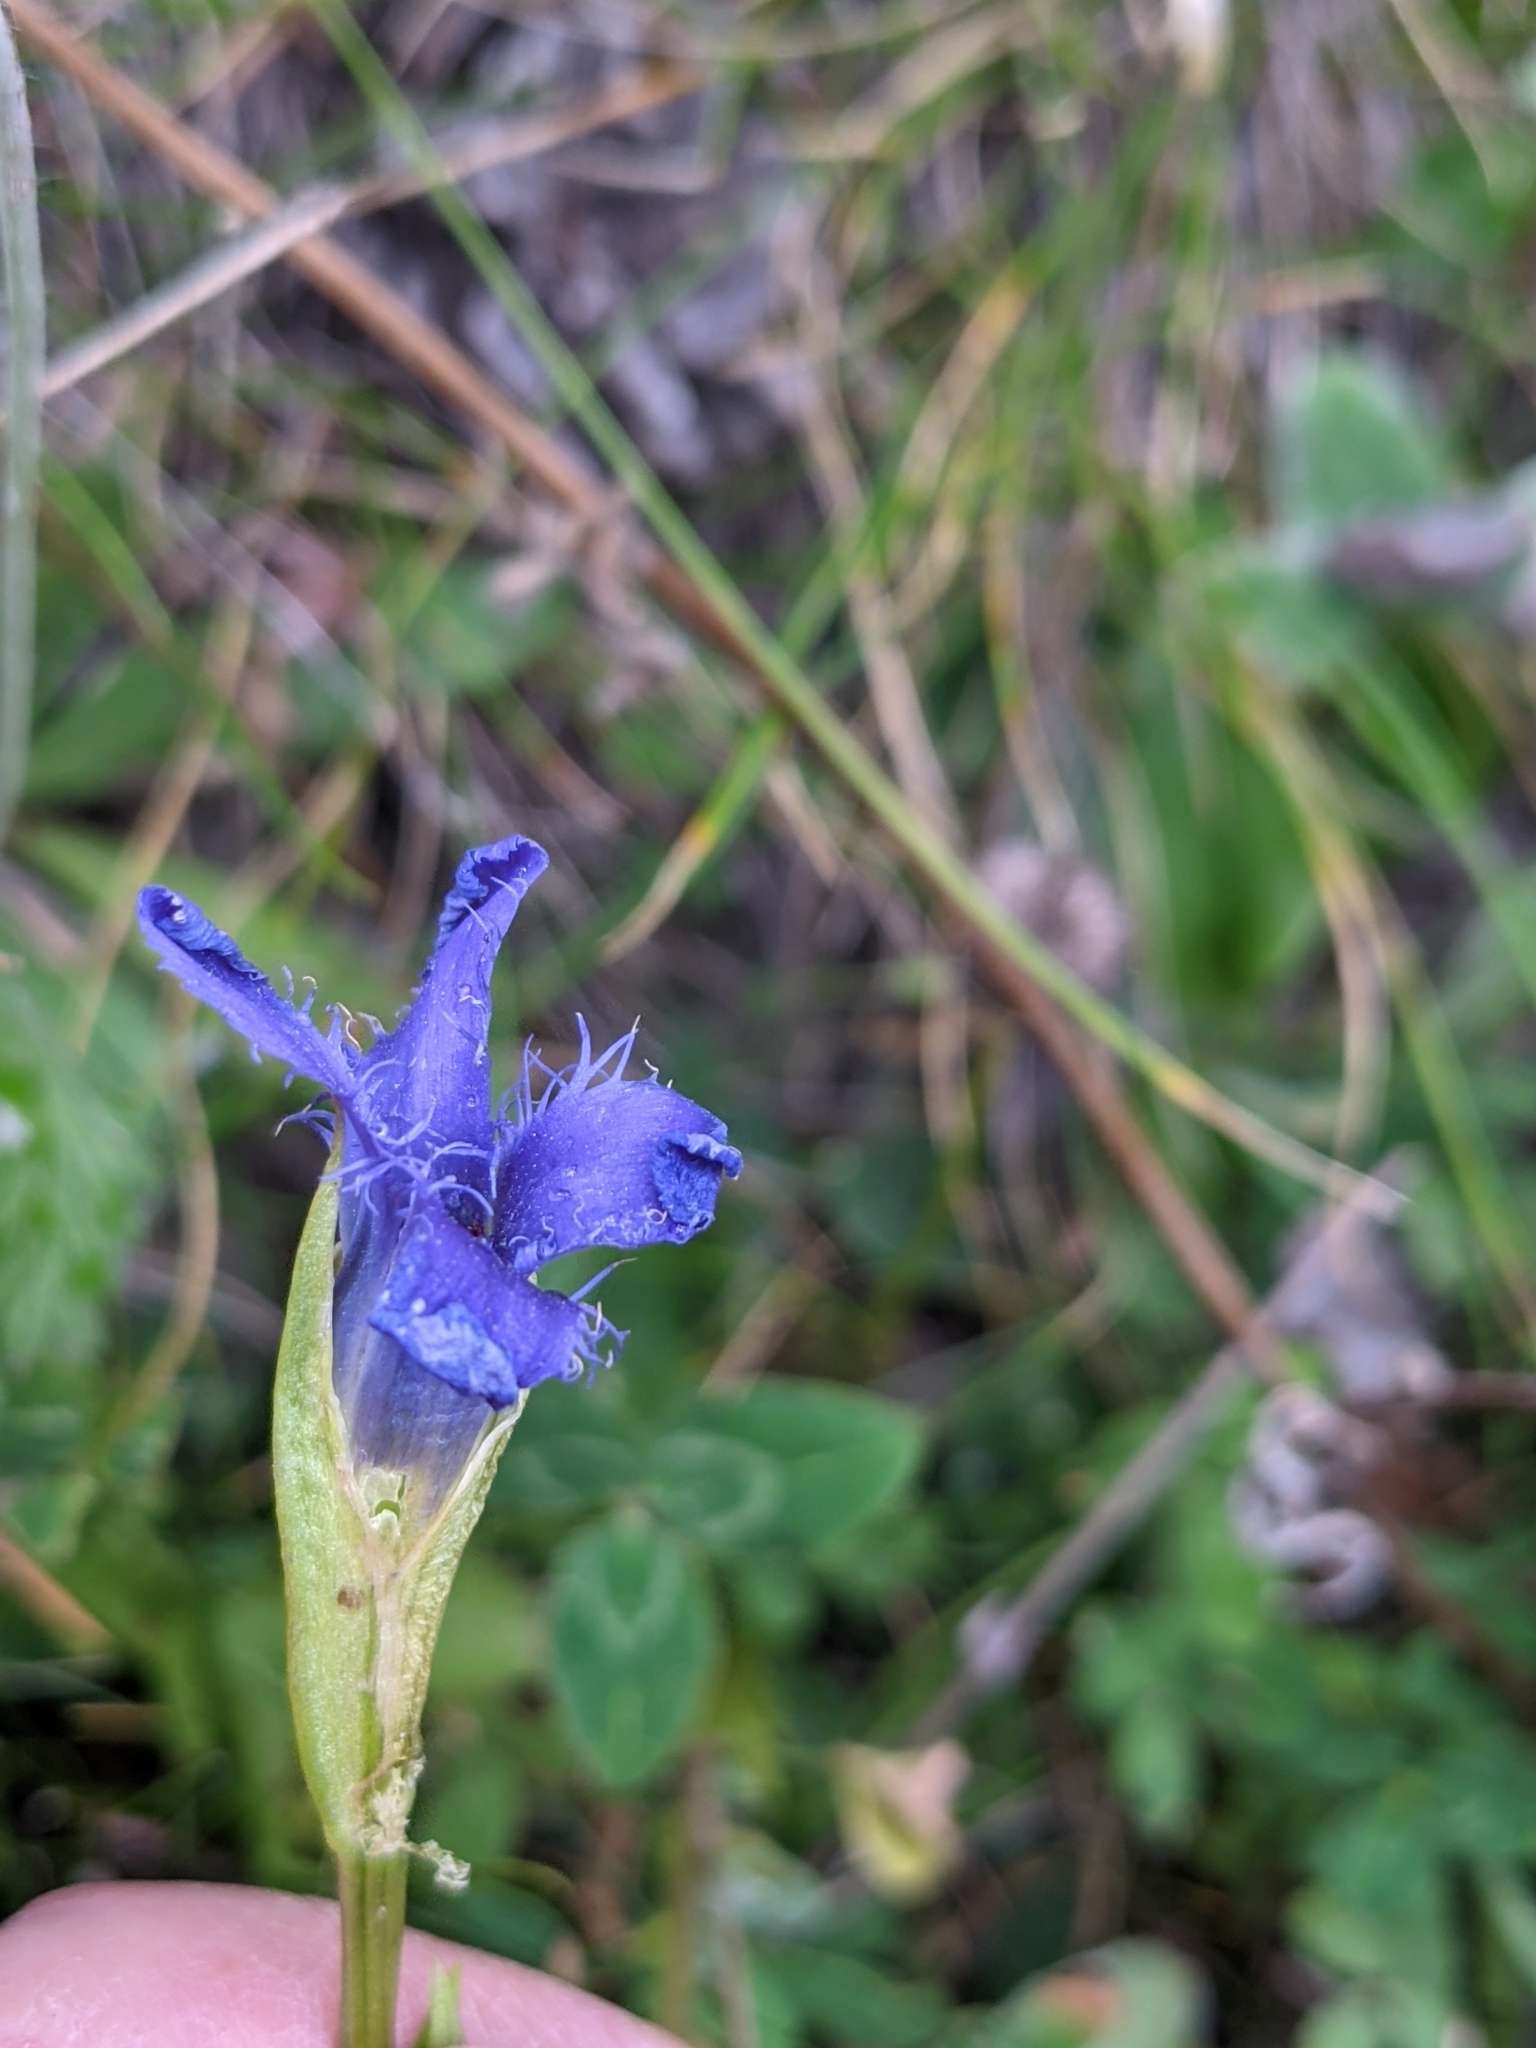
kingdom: Plantae
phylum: Tracheophyta
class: Magnoliopsida
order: Gentianales
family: Gentianaceae
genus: Gentianopsis
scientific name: Gentianopsis ciliata
